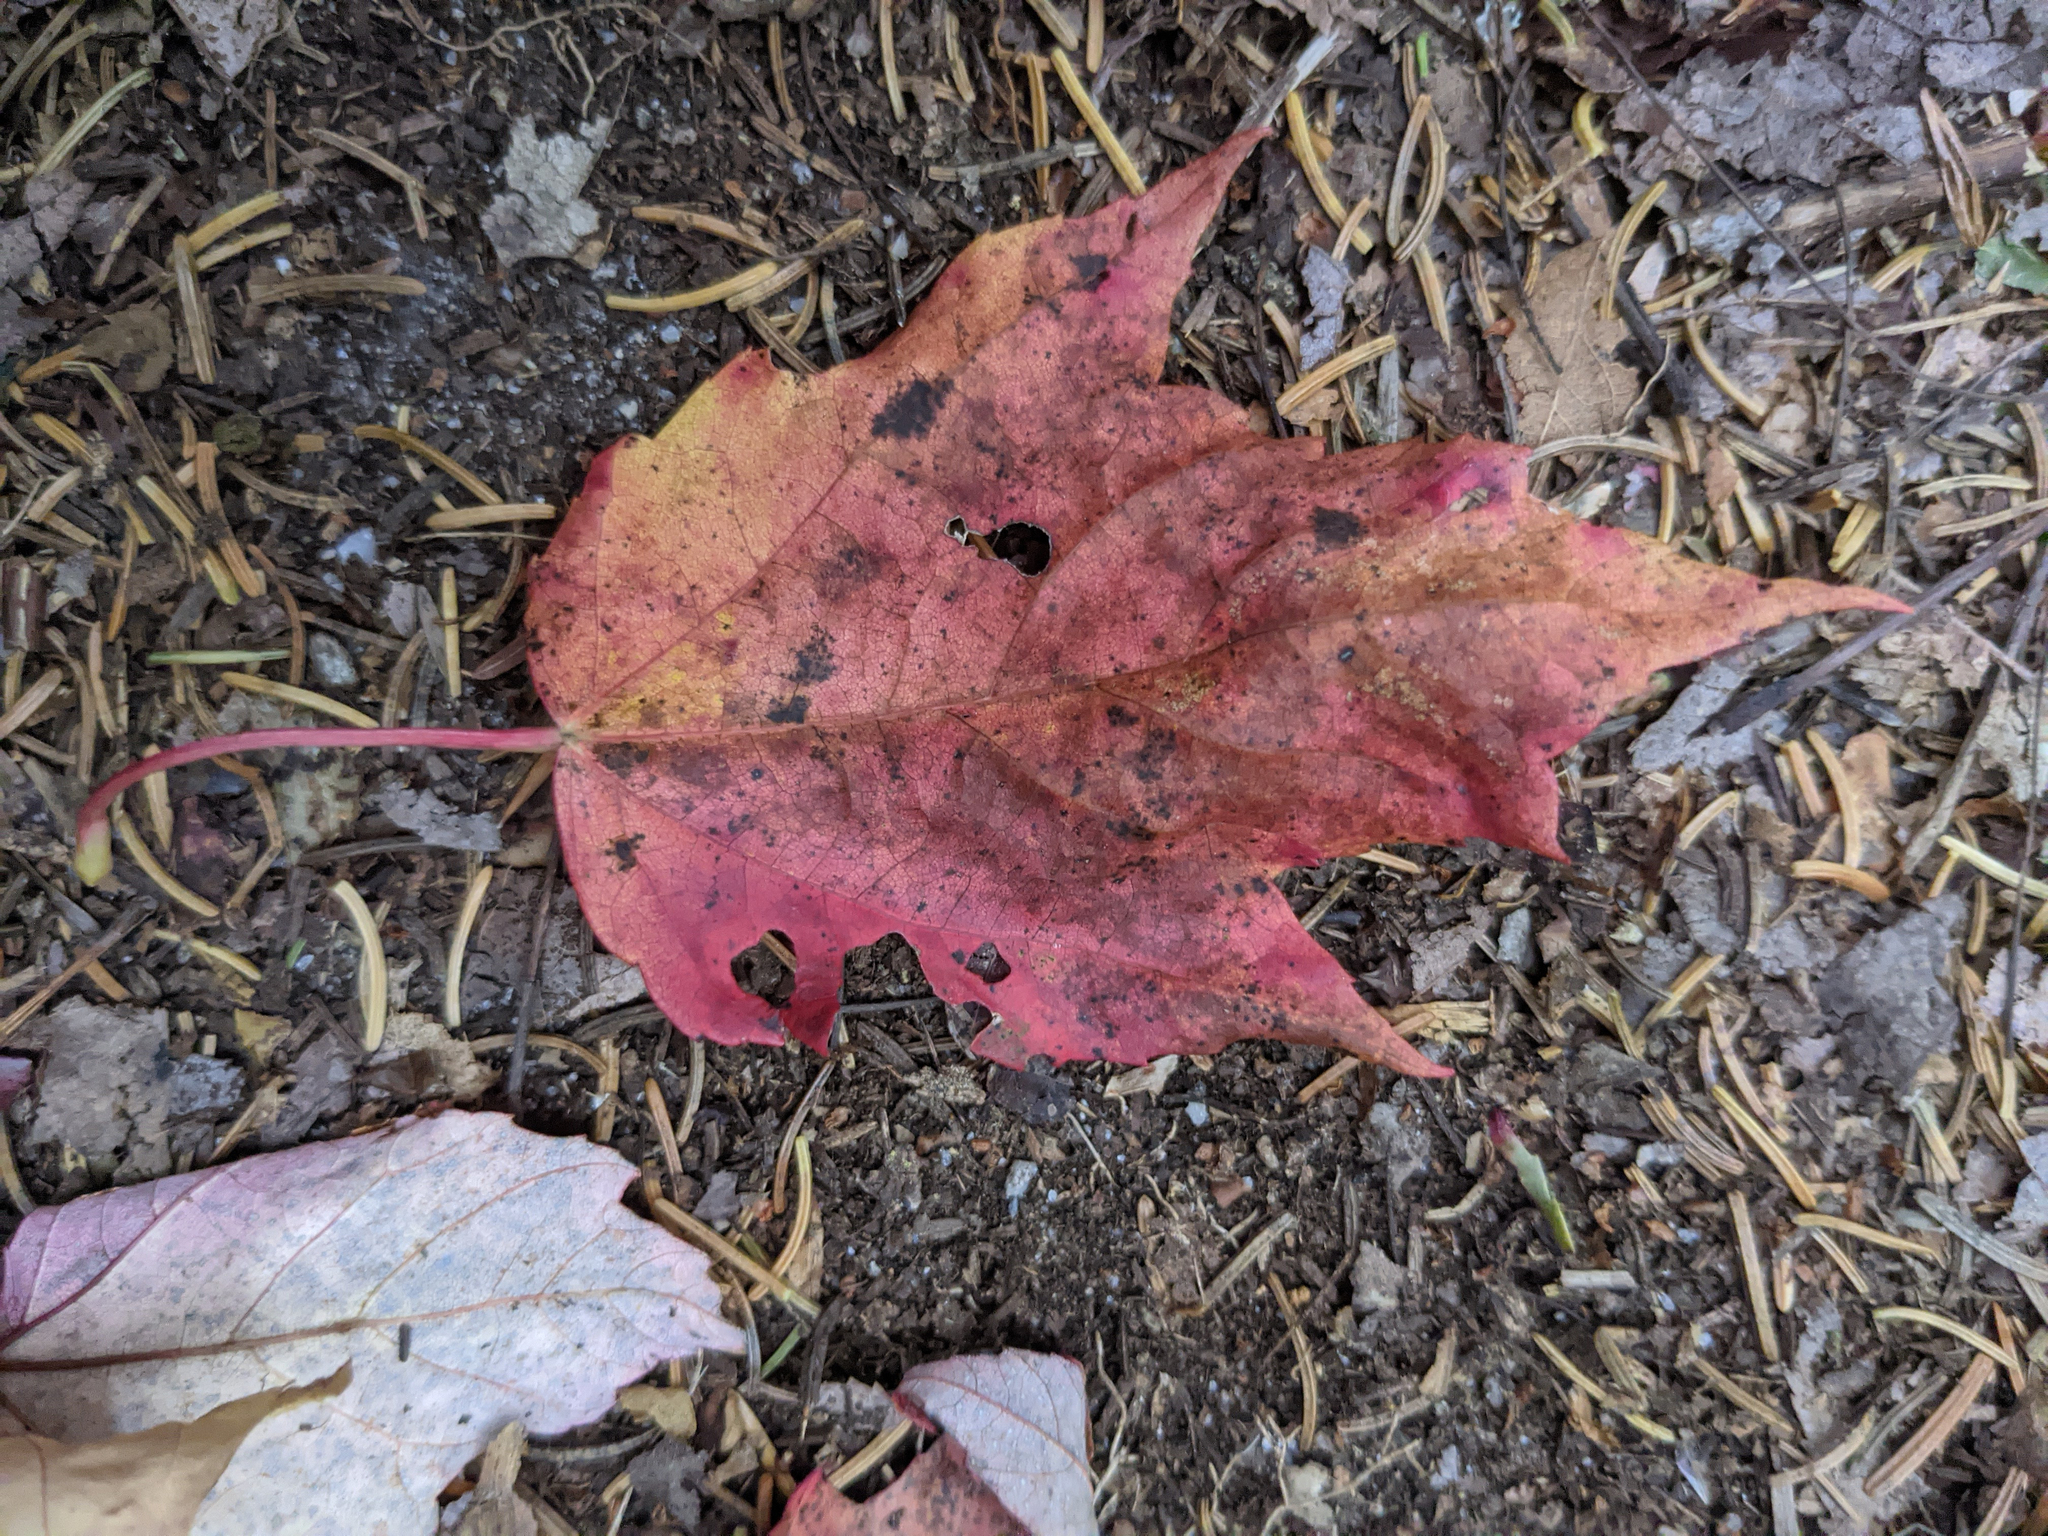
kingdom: Plantae
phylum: Tracheophyta
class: Magnoliopsida
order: Sapindales
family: Sapindaceae
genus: Acer
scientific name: Acer rubrum
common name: Red maple
